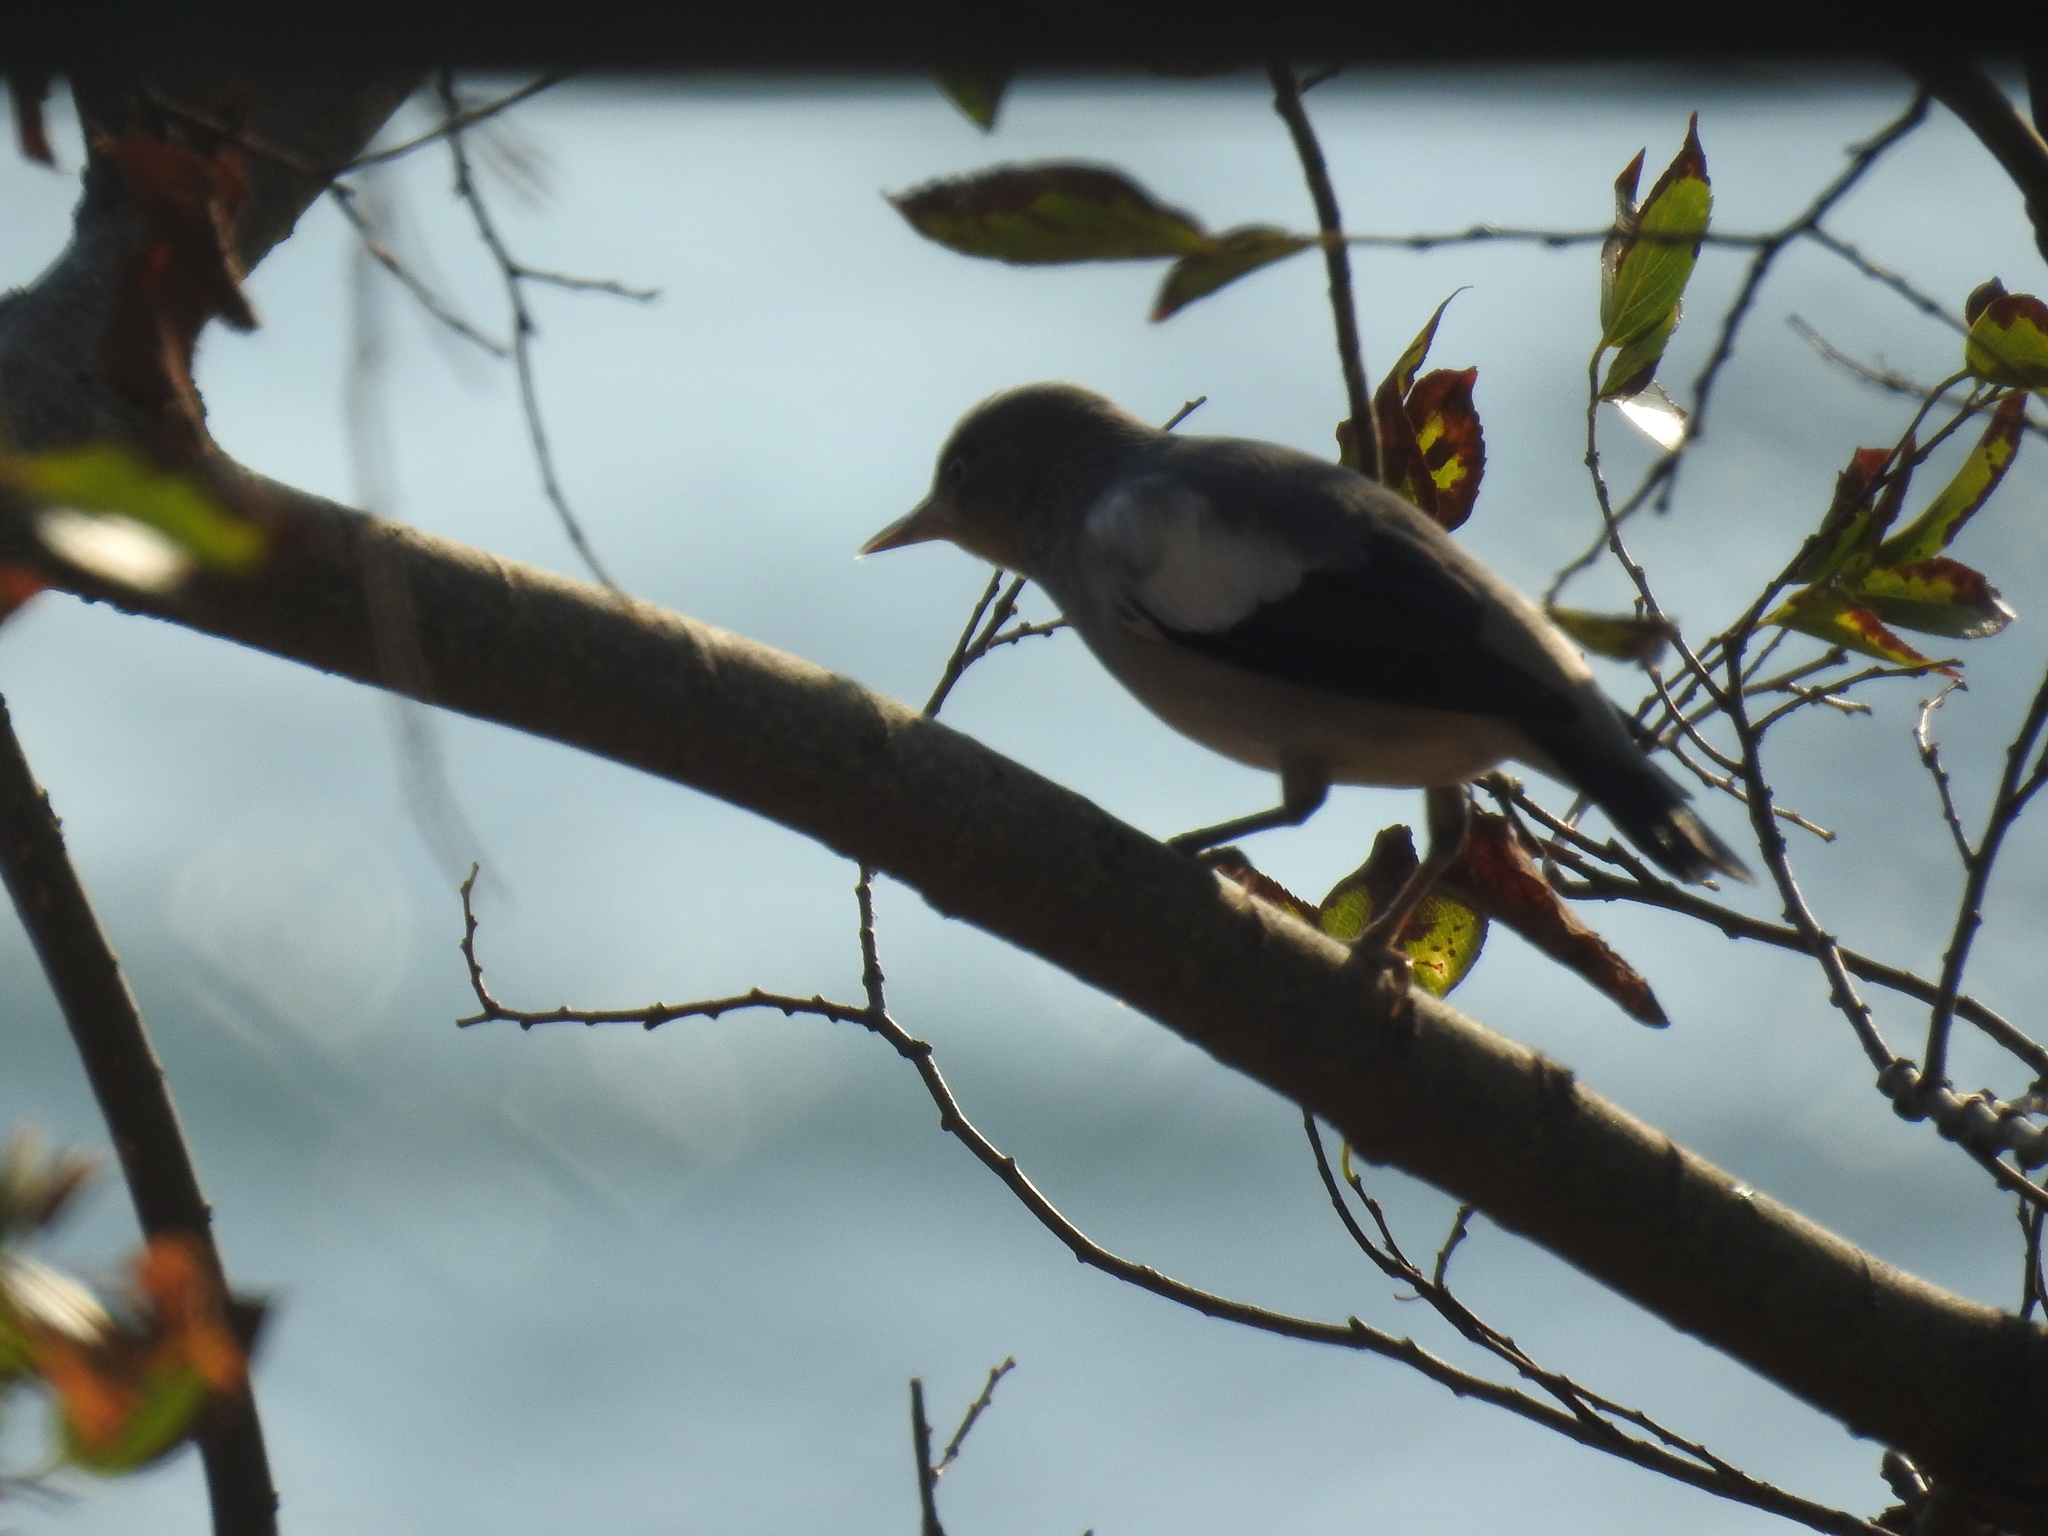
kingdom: Animalia
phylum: Chordata
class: Aves
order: Passeriformes
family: Sturnidae
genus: Sturnia
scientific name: Sturnia sinensis
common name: White-shouldered starling
